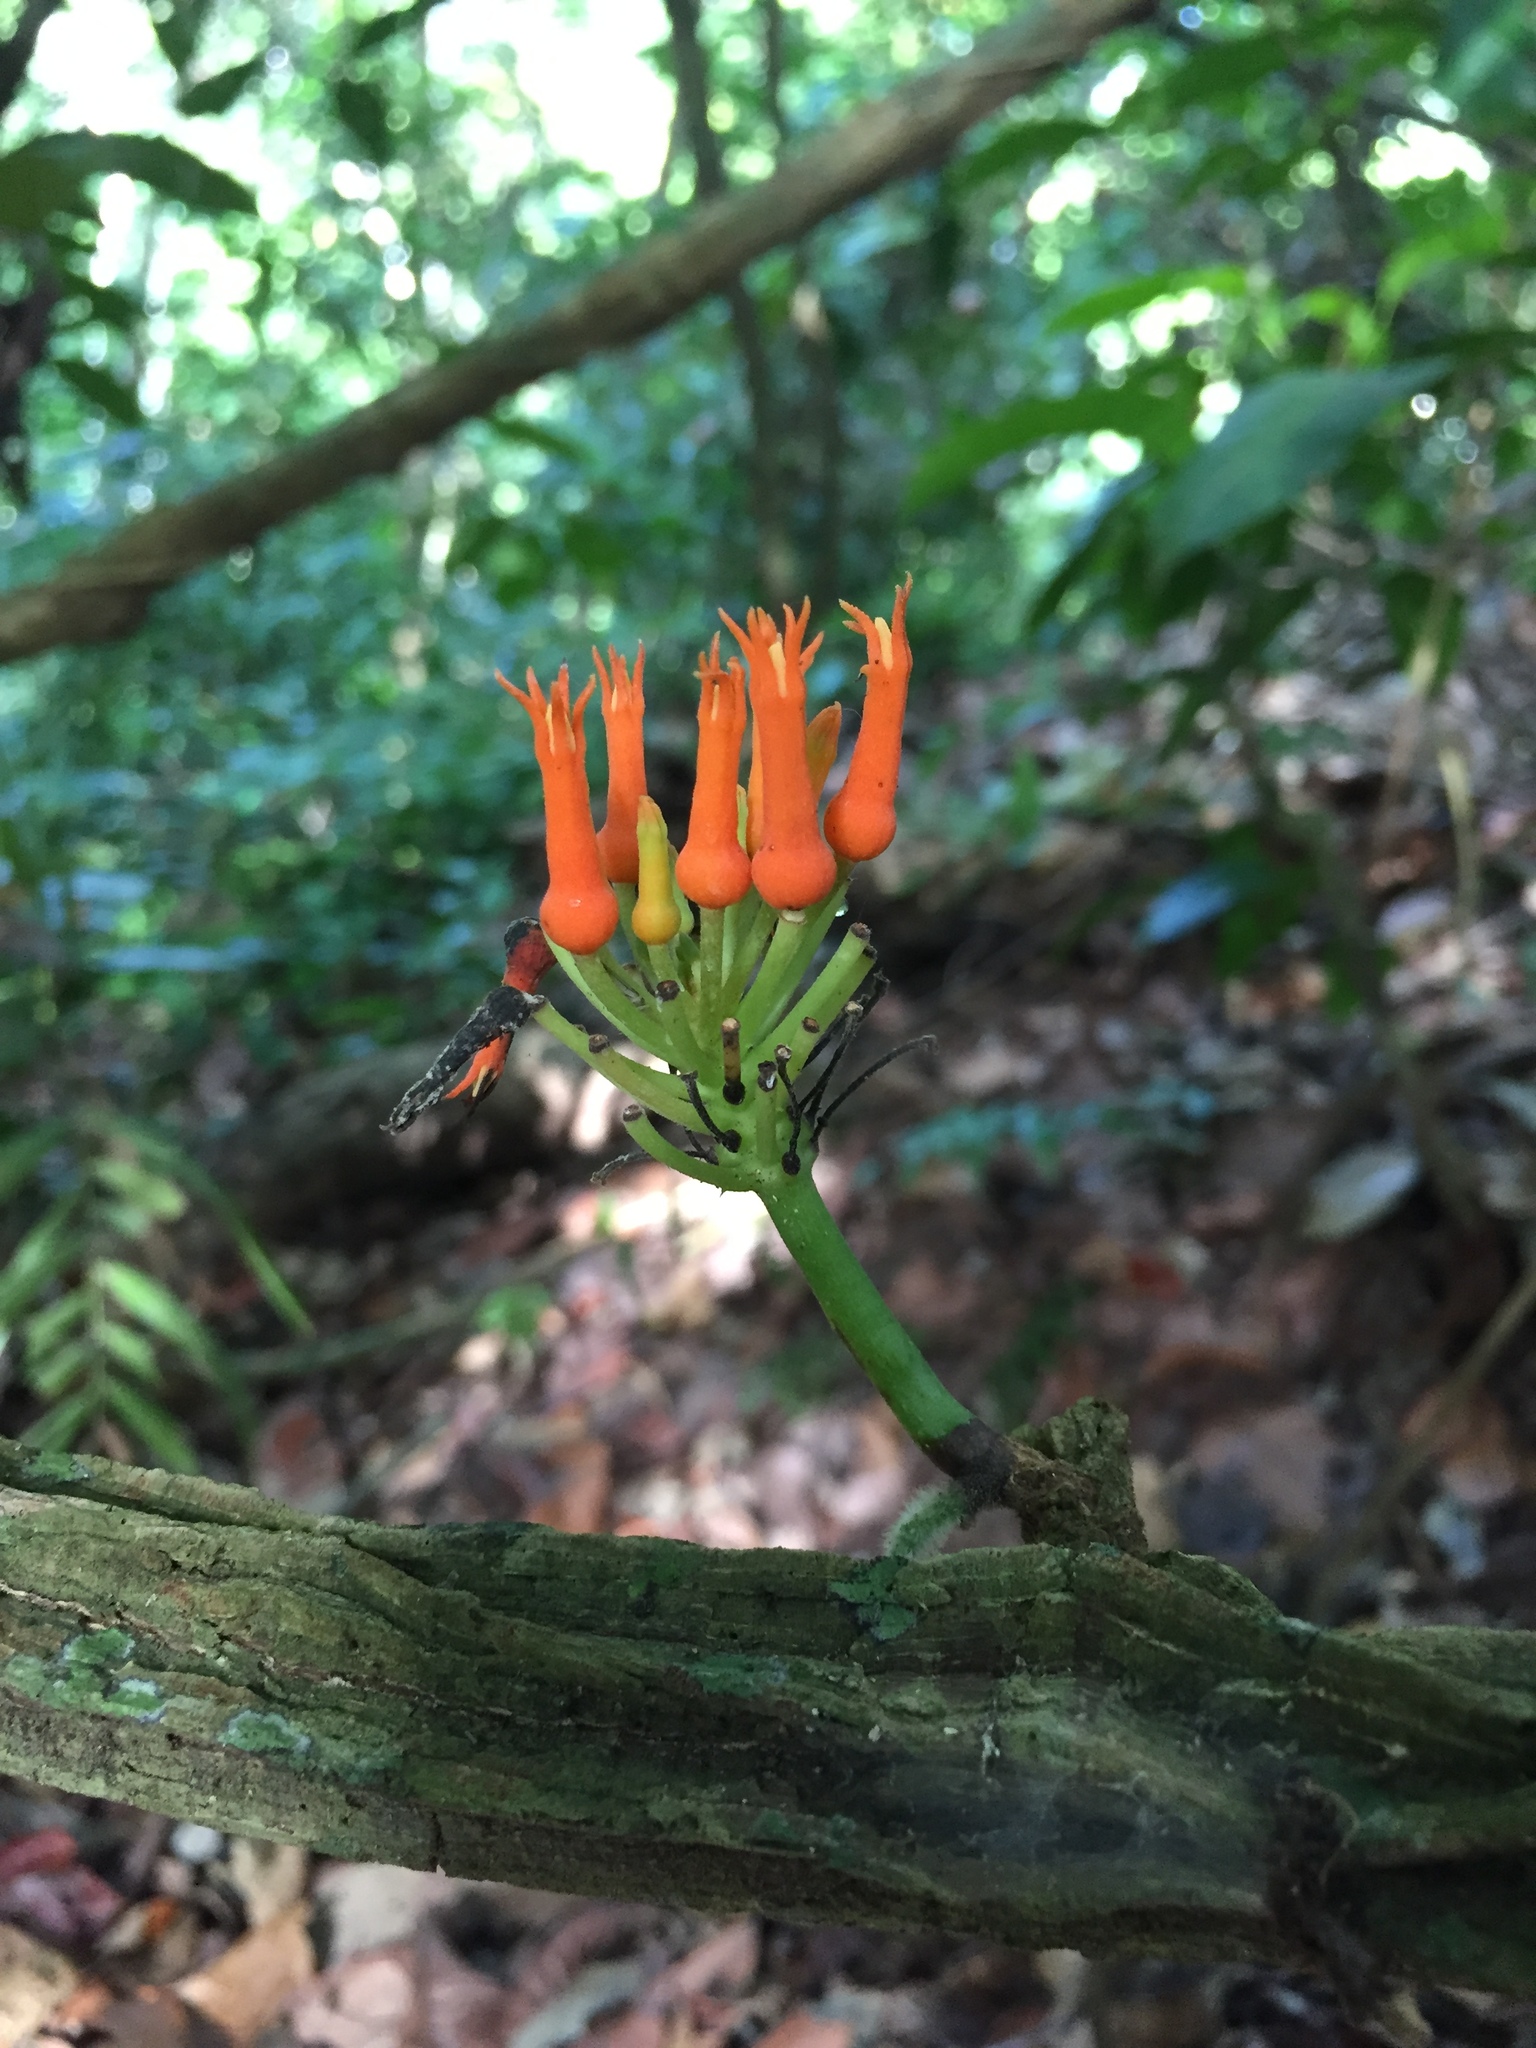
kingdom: Plantae
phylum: Tracheophyta
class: Magnoliopsida
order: Cucurbitales
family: Cucurbitaceae
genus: Gurania
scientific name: Gurania tubulosa
